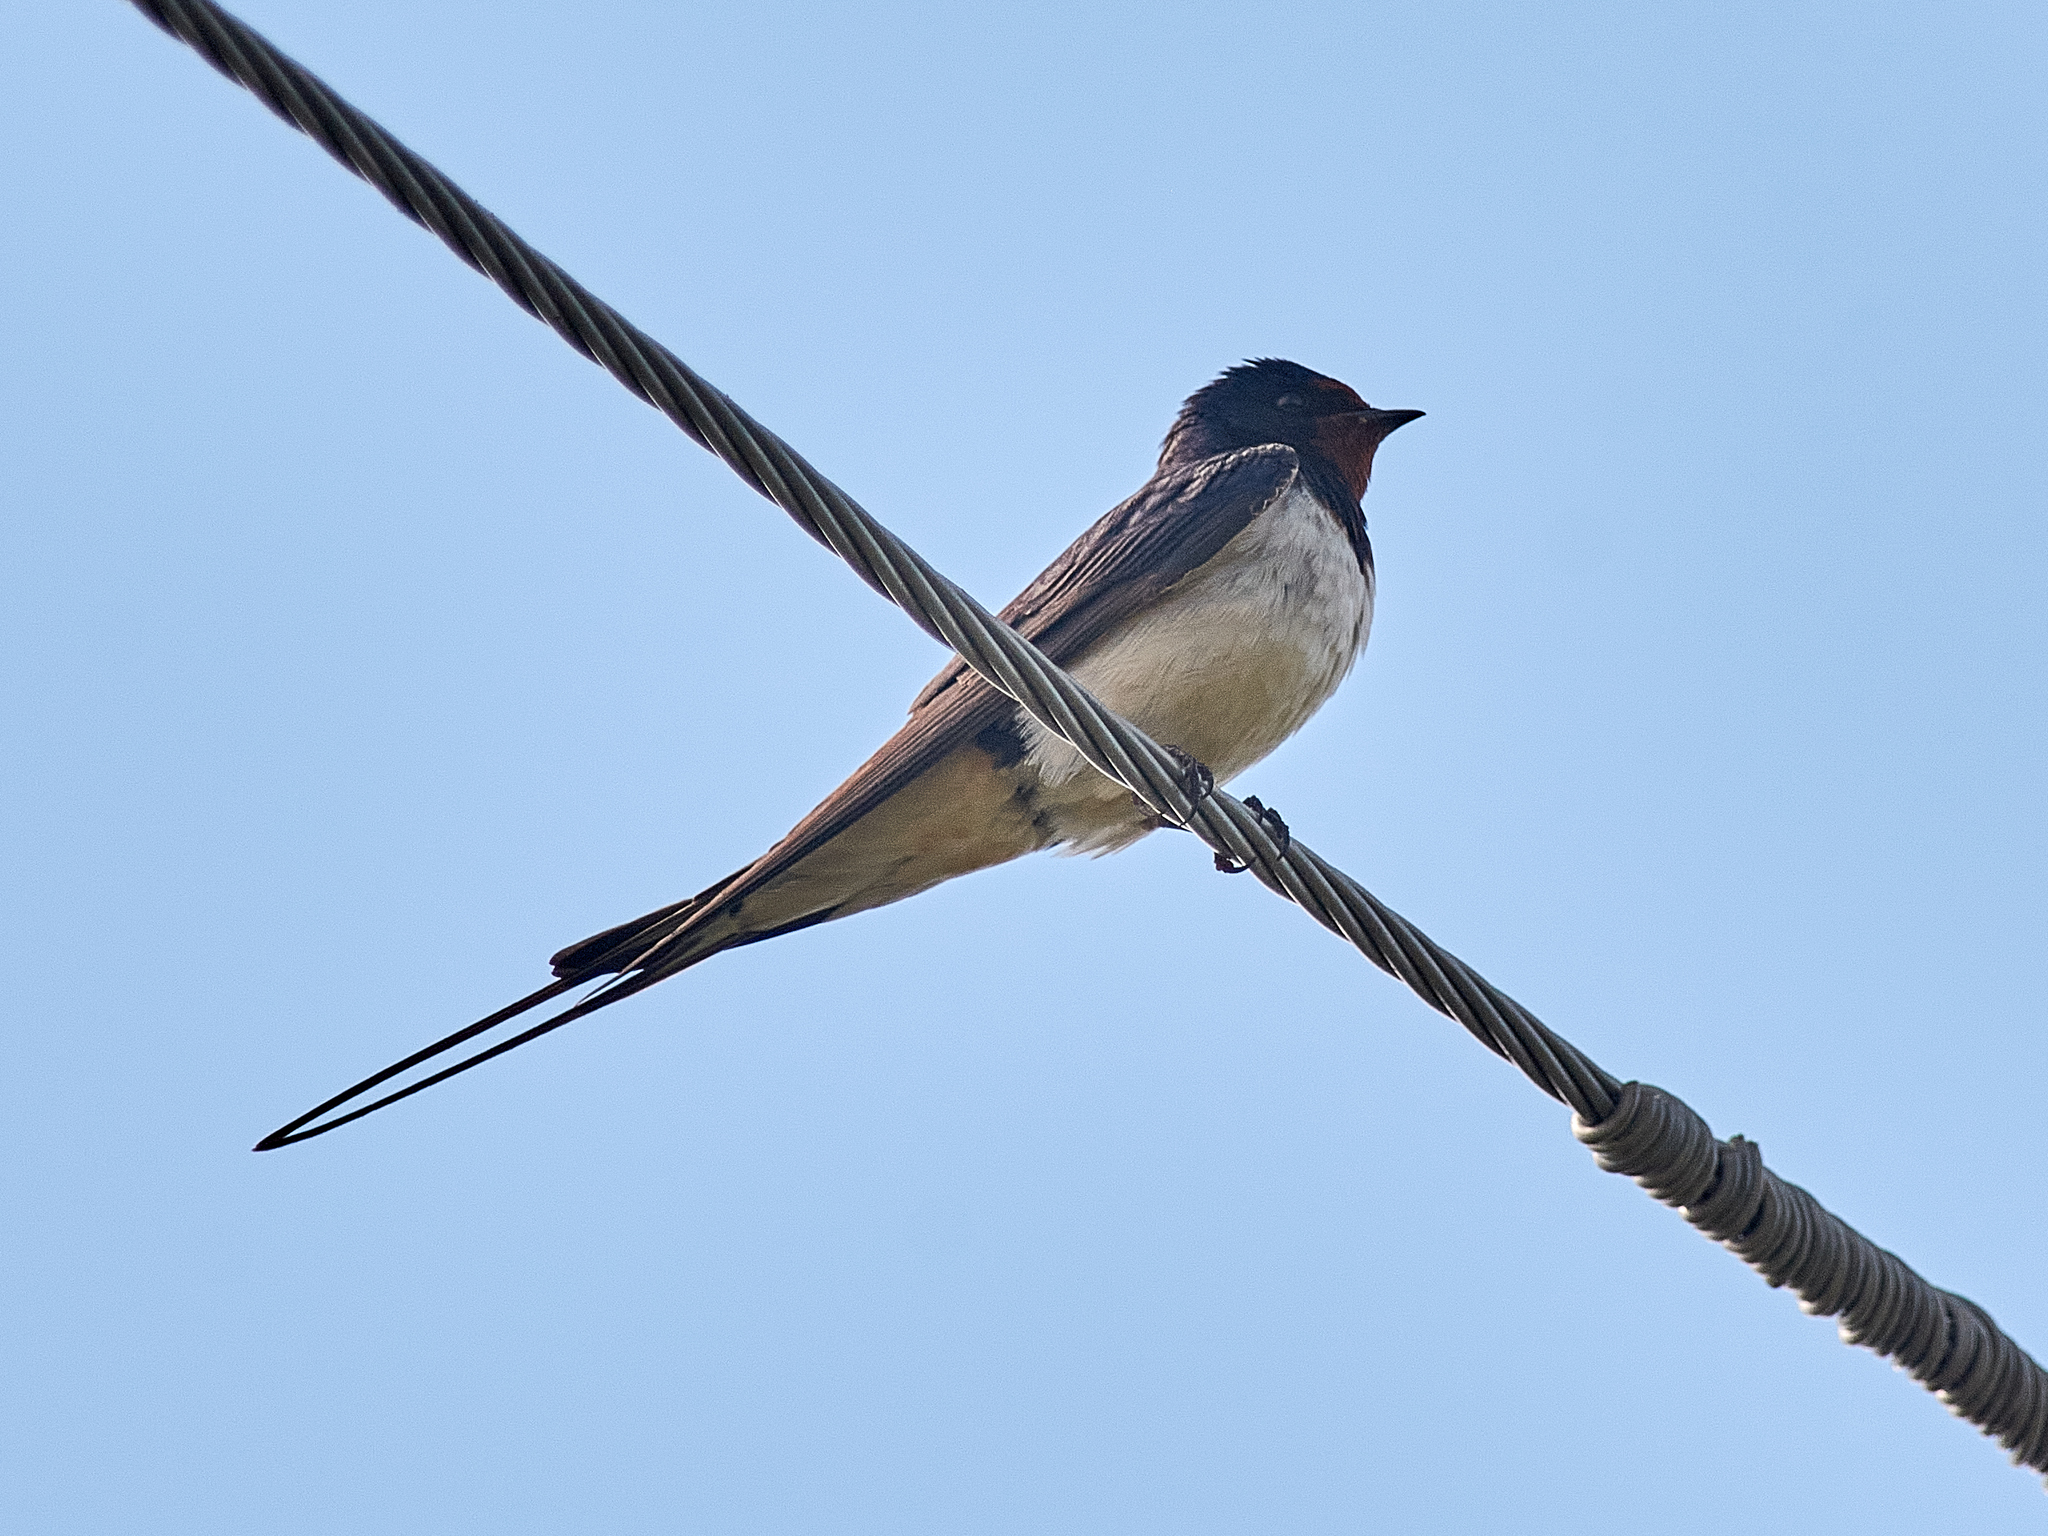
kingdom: Animalia
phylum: Chordata
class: Aves
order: Passeriformes
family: Hirundinidae
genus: Hirundo
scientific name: Hirundo rustica
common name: Barn swallow
